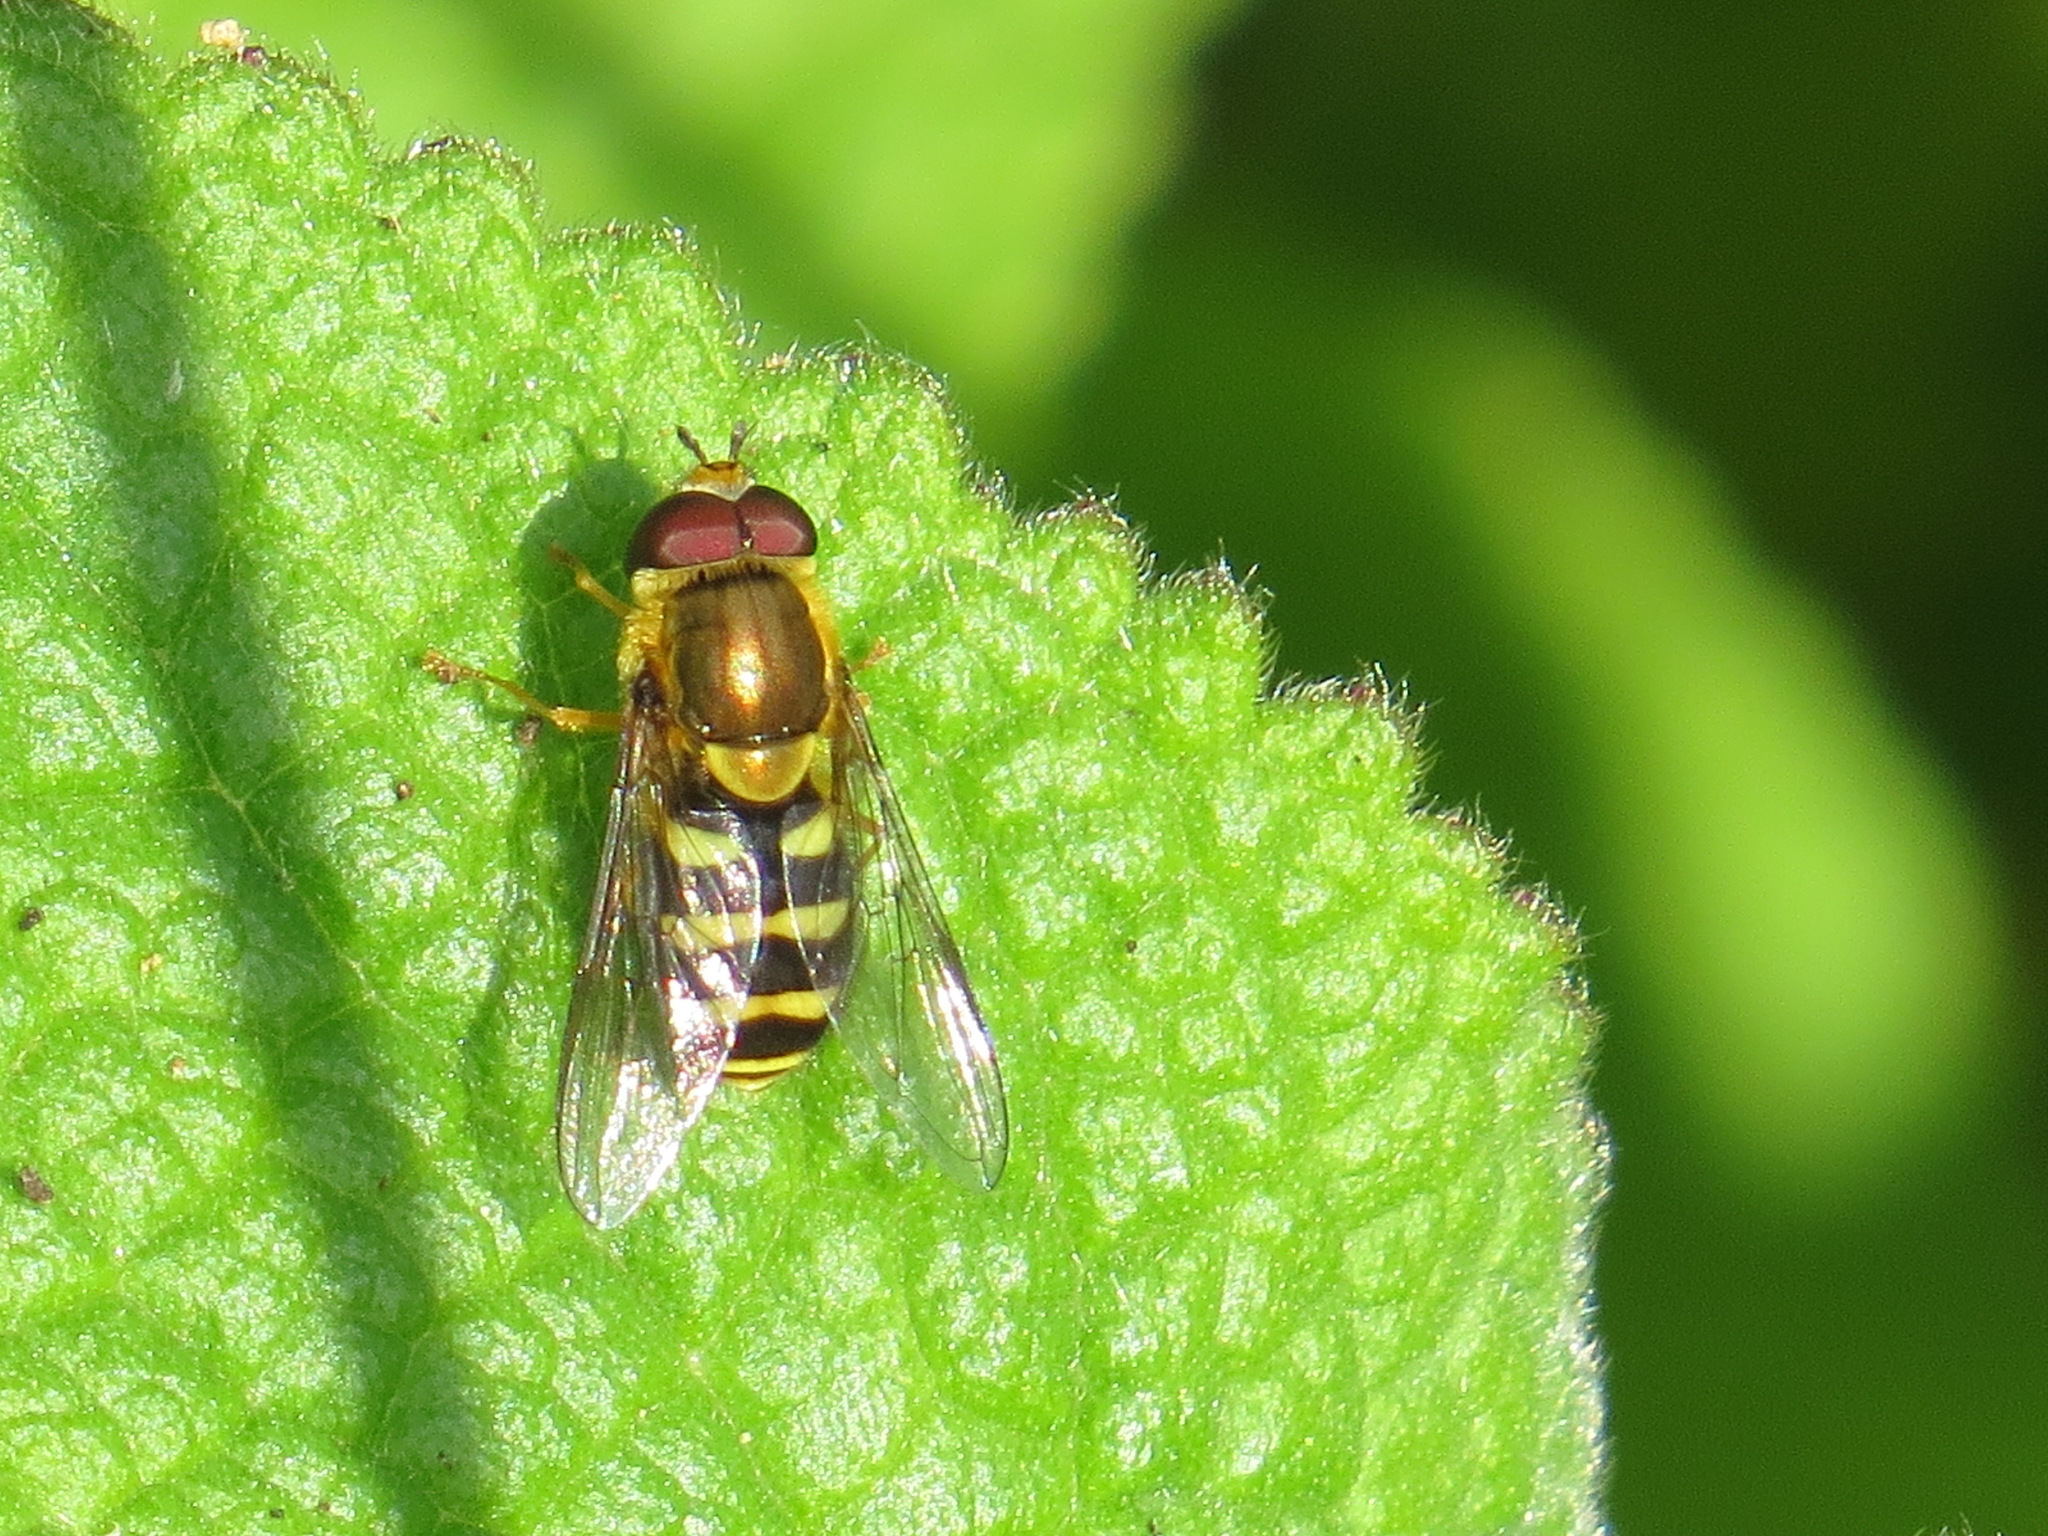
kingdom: Animalia
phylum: Arthropoda
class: Insecta
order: Diptera
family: Syrphidae
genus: Syrphus
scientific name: Syrphus opinator
